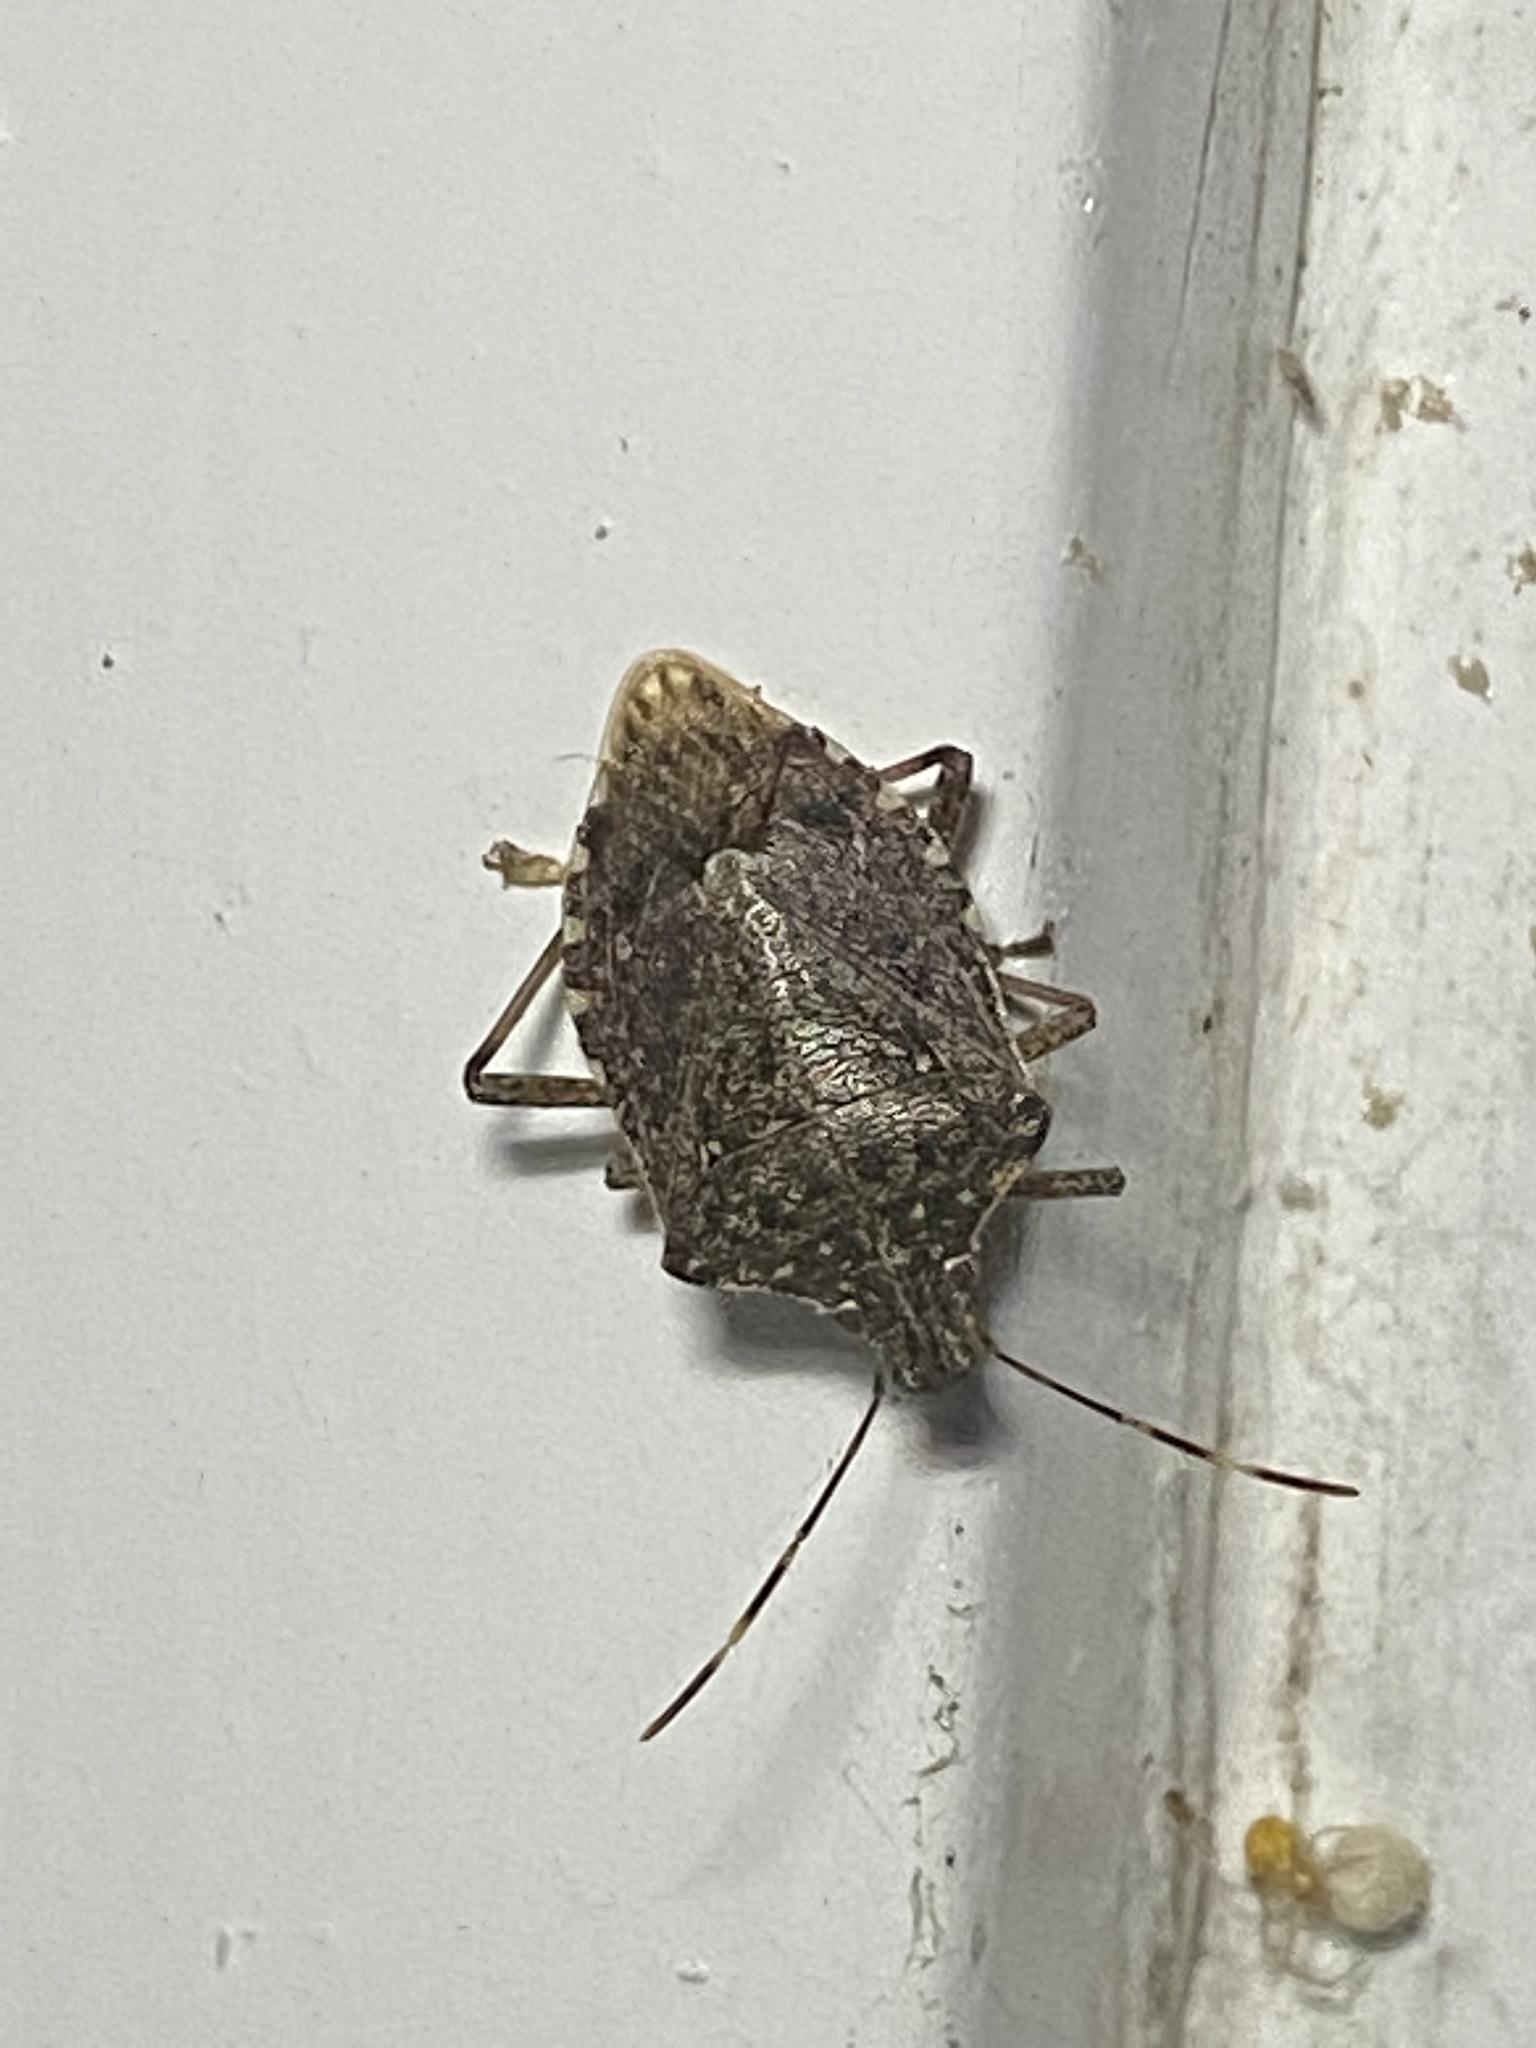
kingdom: Animalia
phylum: Arthropoda
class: Insecta
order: Hemiptera
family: Pentatomidae
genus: Halyomorpha
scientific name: Halyomorpha halys
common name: Brown marmorated stink bug
